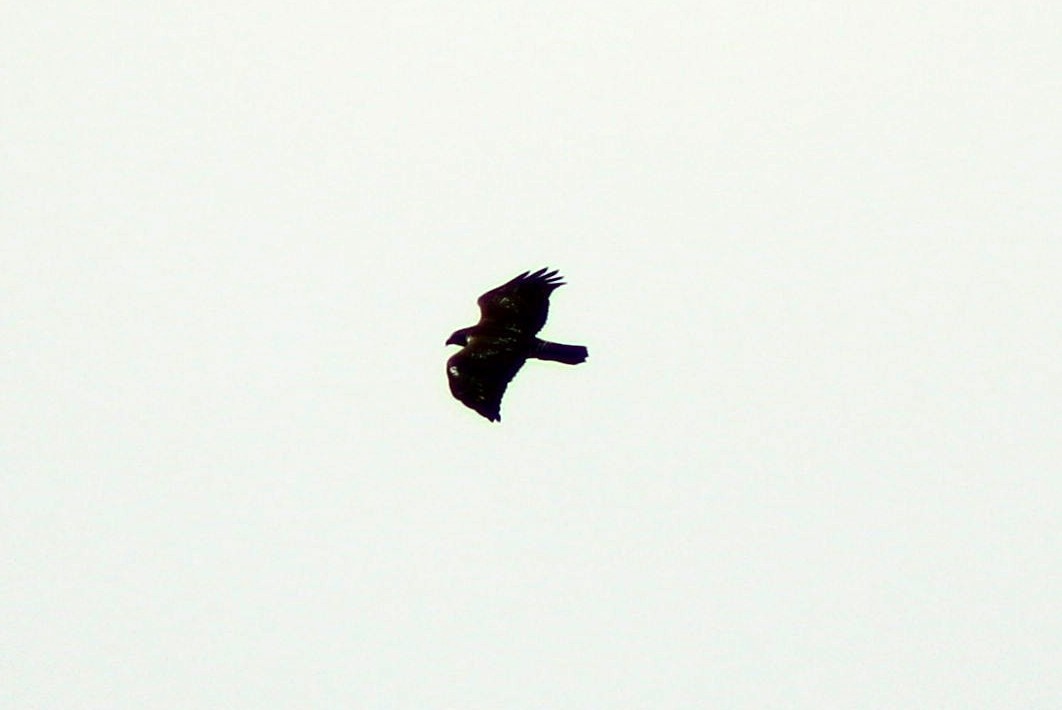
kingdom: Animalia
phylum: Chordata
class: Aves
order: Accipitriformes
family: Accipitridae
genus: Buteo
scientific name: Buteo jamaicensis
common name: Red-tailed hawk
